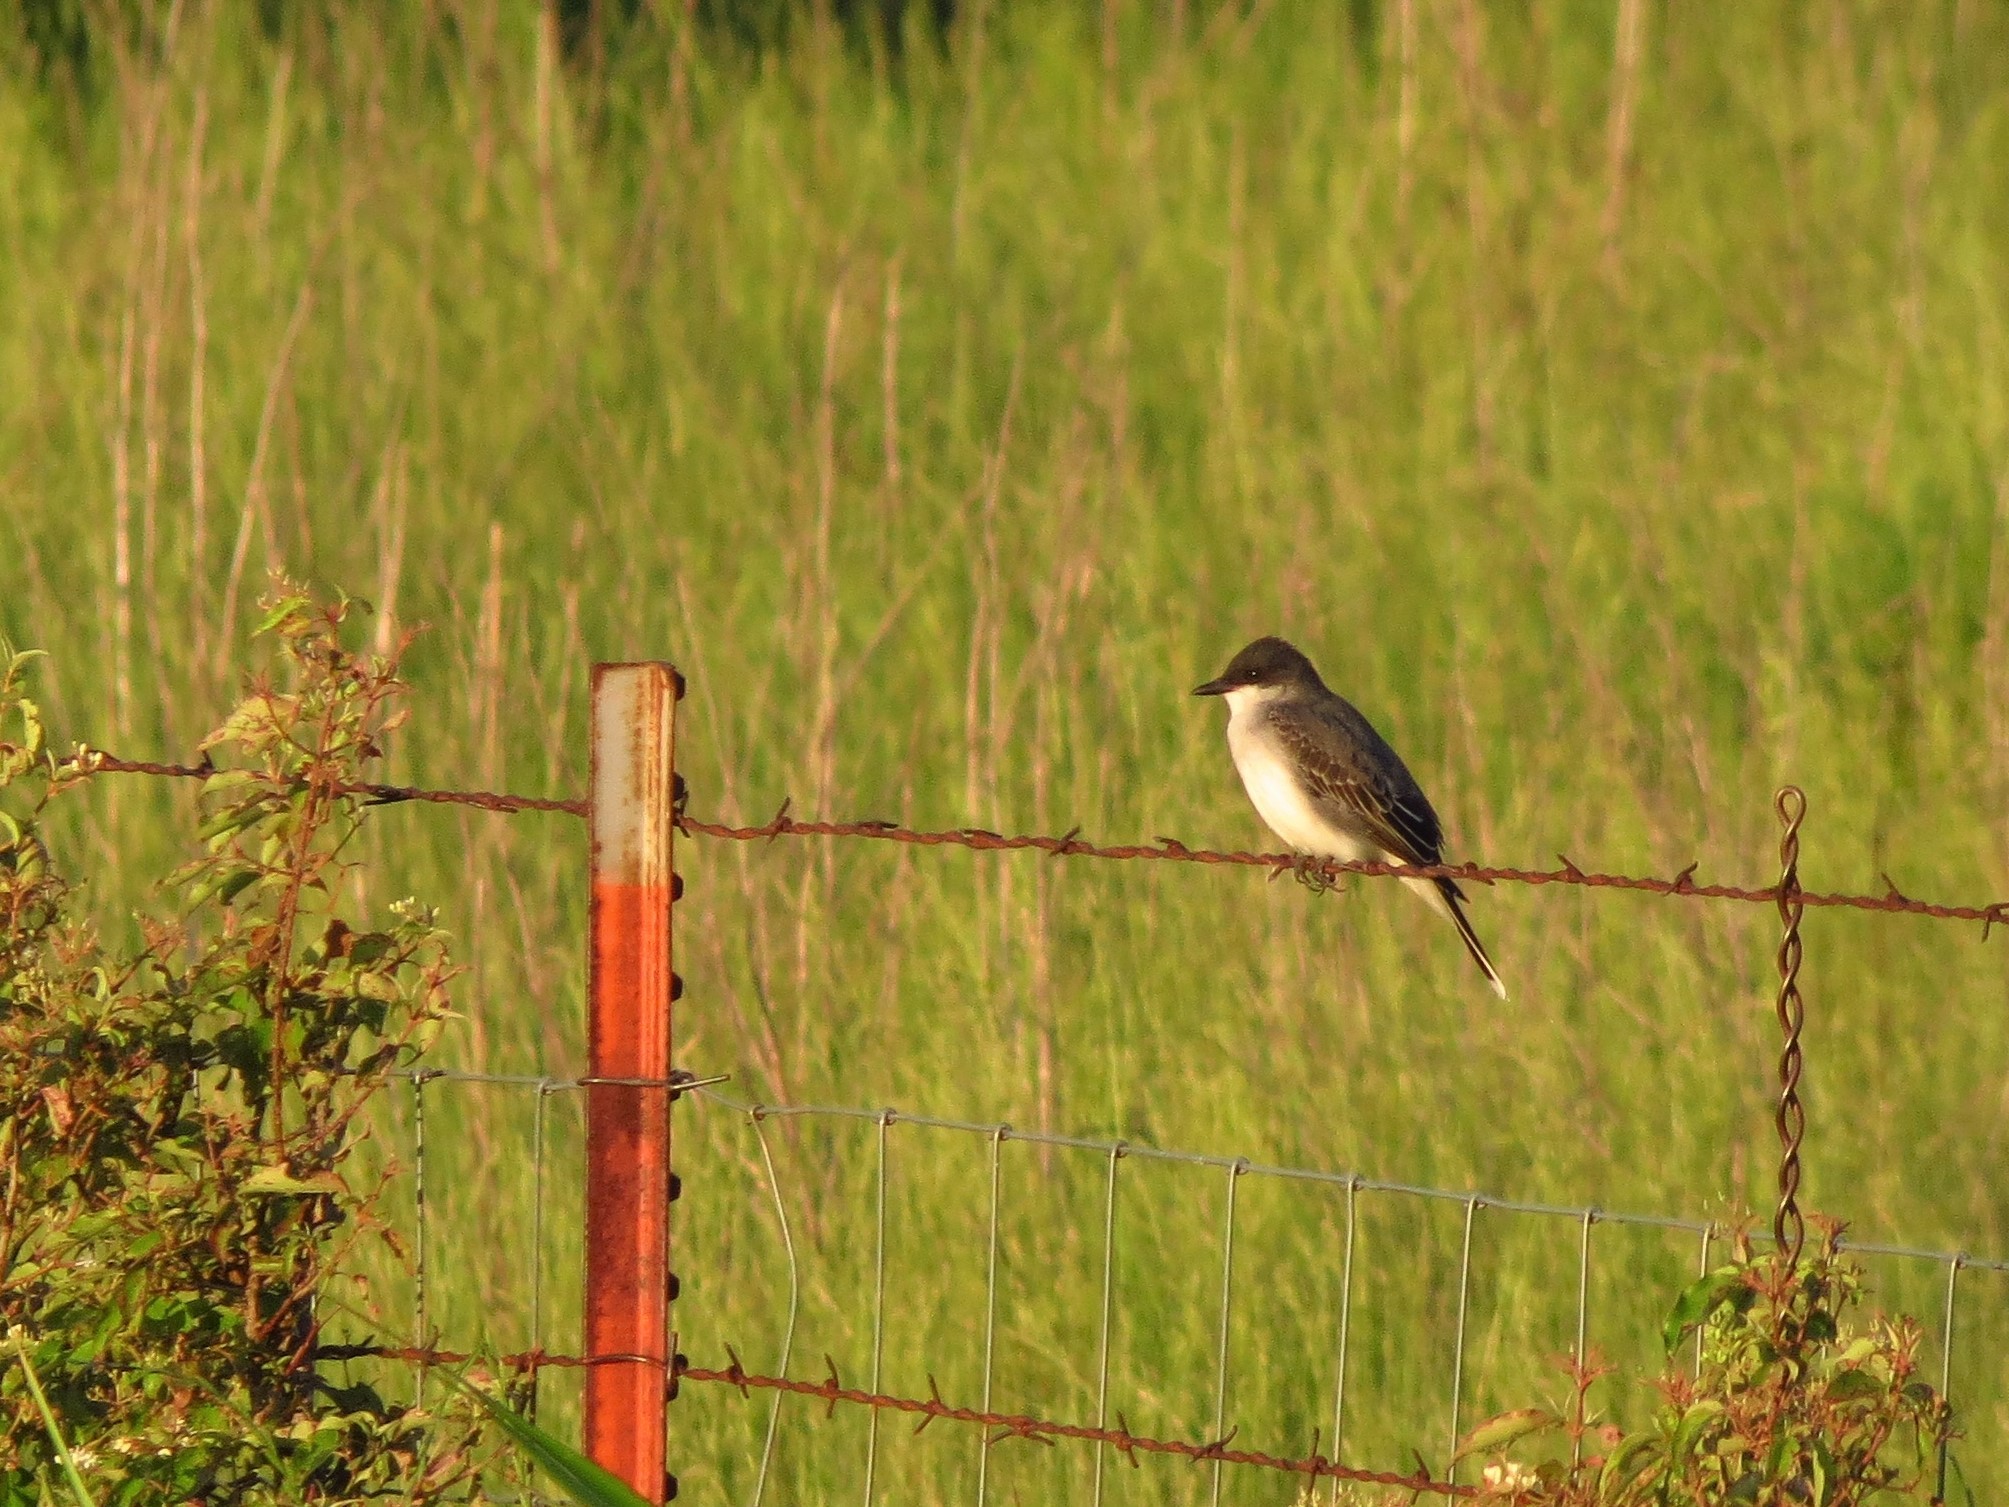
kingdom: Animalia
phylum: Chordata
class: Aves
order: Passeriformes
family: Tyrannidae
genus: Tyrannus
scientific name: Tyrannus tyrannus
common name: Eastern kingbird
